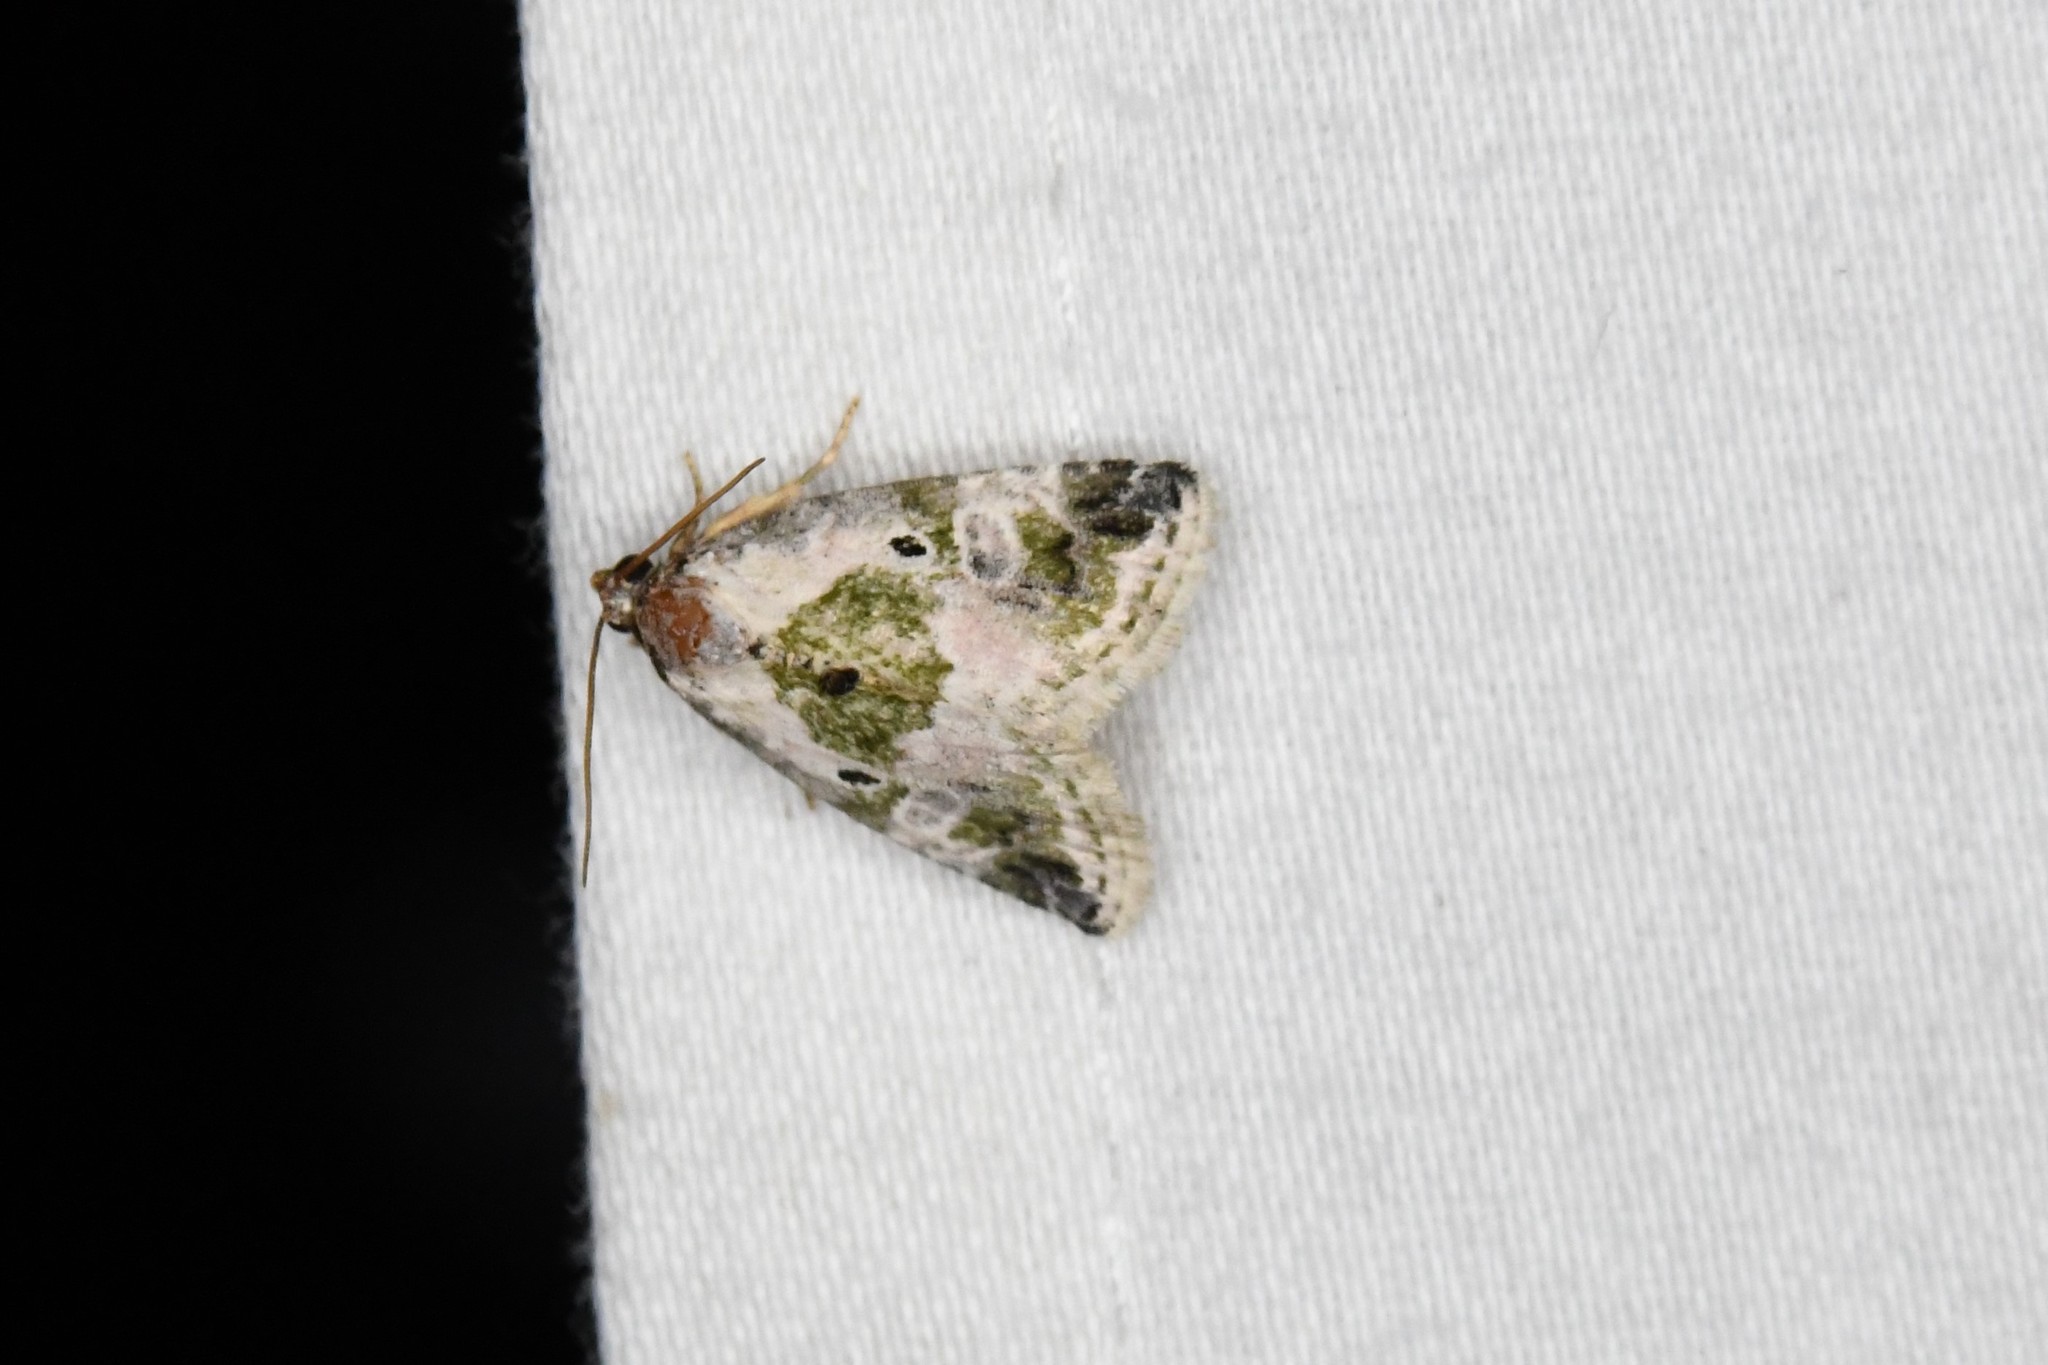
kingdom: Animalia
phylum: Arthropoda
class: Insecta
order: Lepidoptera
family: Noctuidae
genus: Maliattha
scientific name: Maliattha synochitis
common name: Black-dotted glyph
